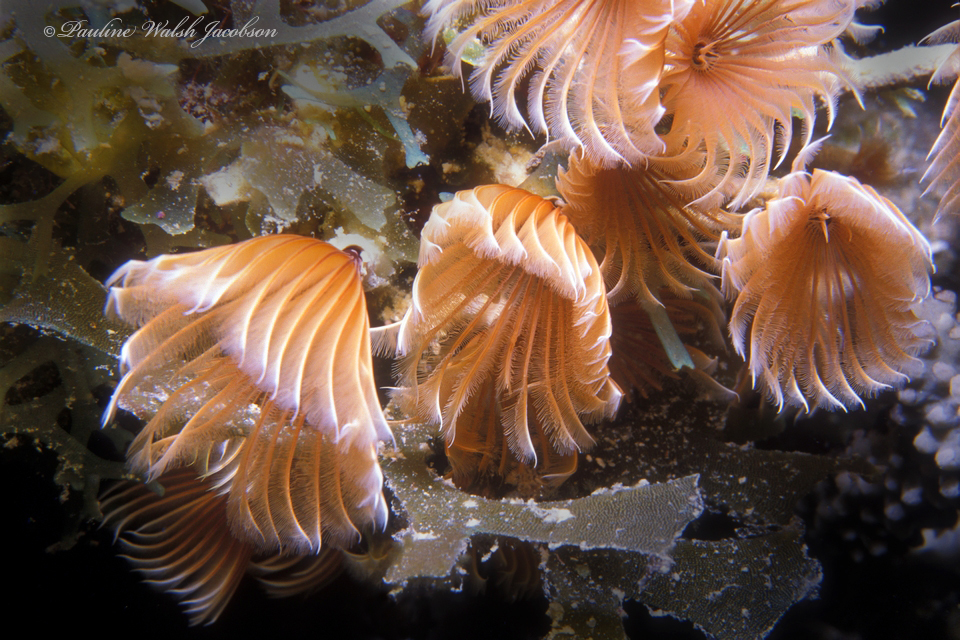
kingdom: Animalia
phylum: Annelida
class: Polychaeta
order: Sabellida
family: Sabellidae
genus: Bispira
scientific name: Bispira brunnea
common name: Social feather duster
